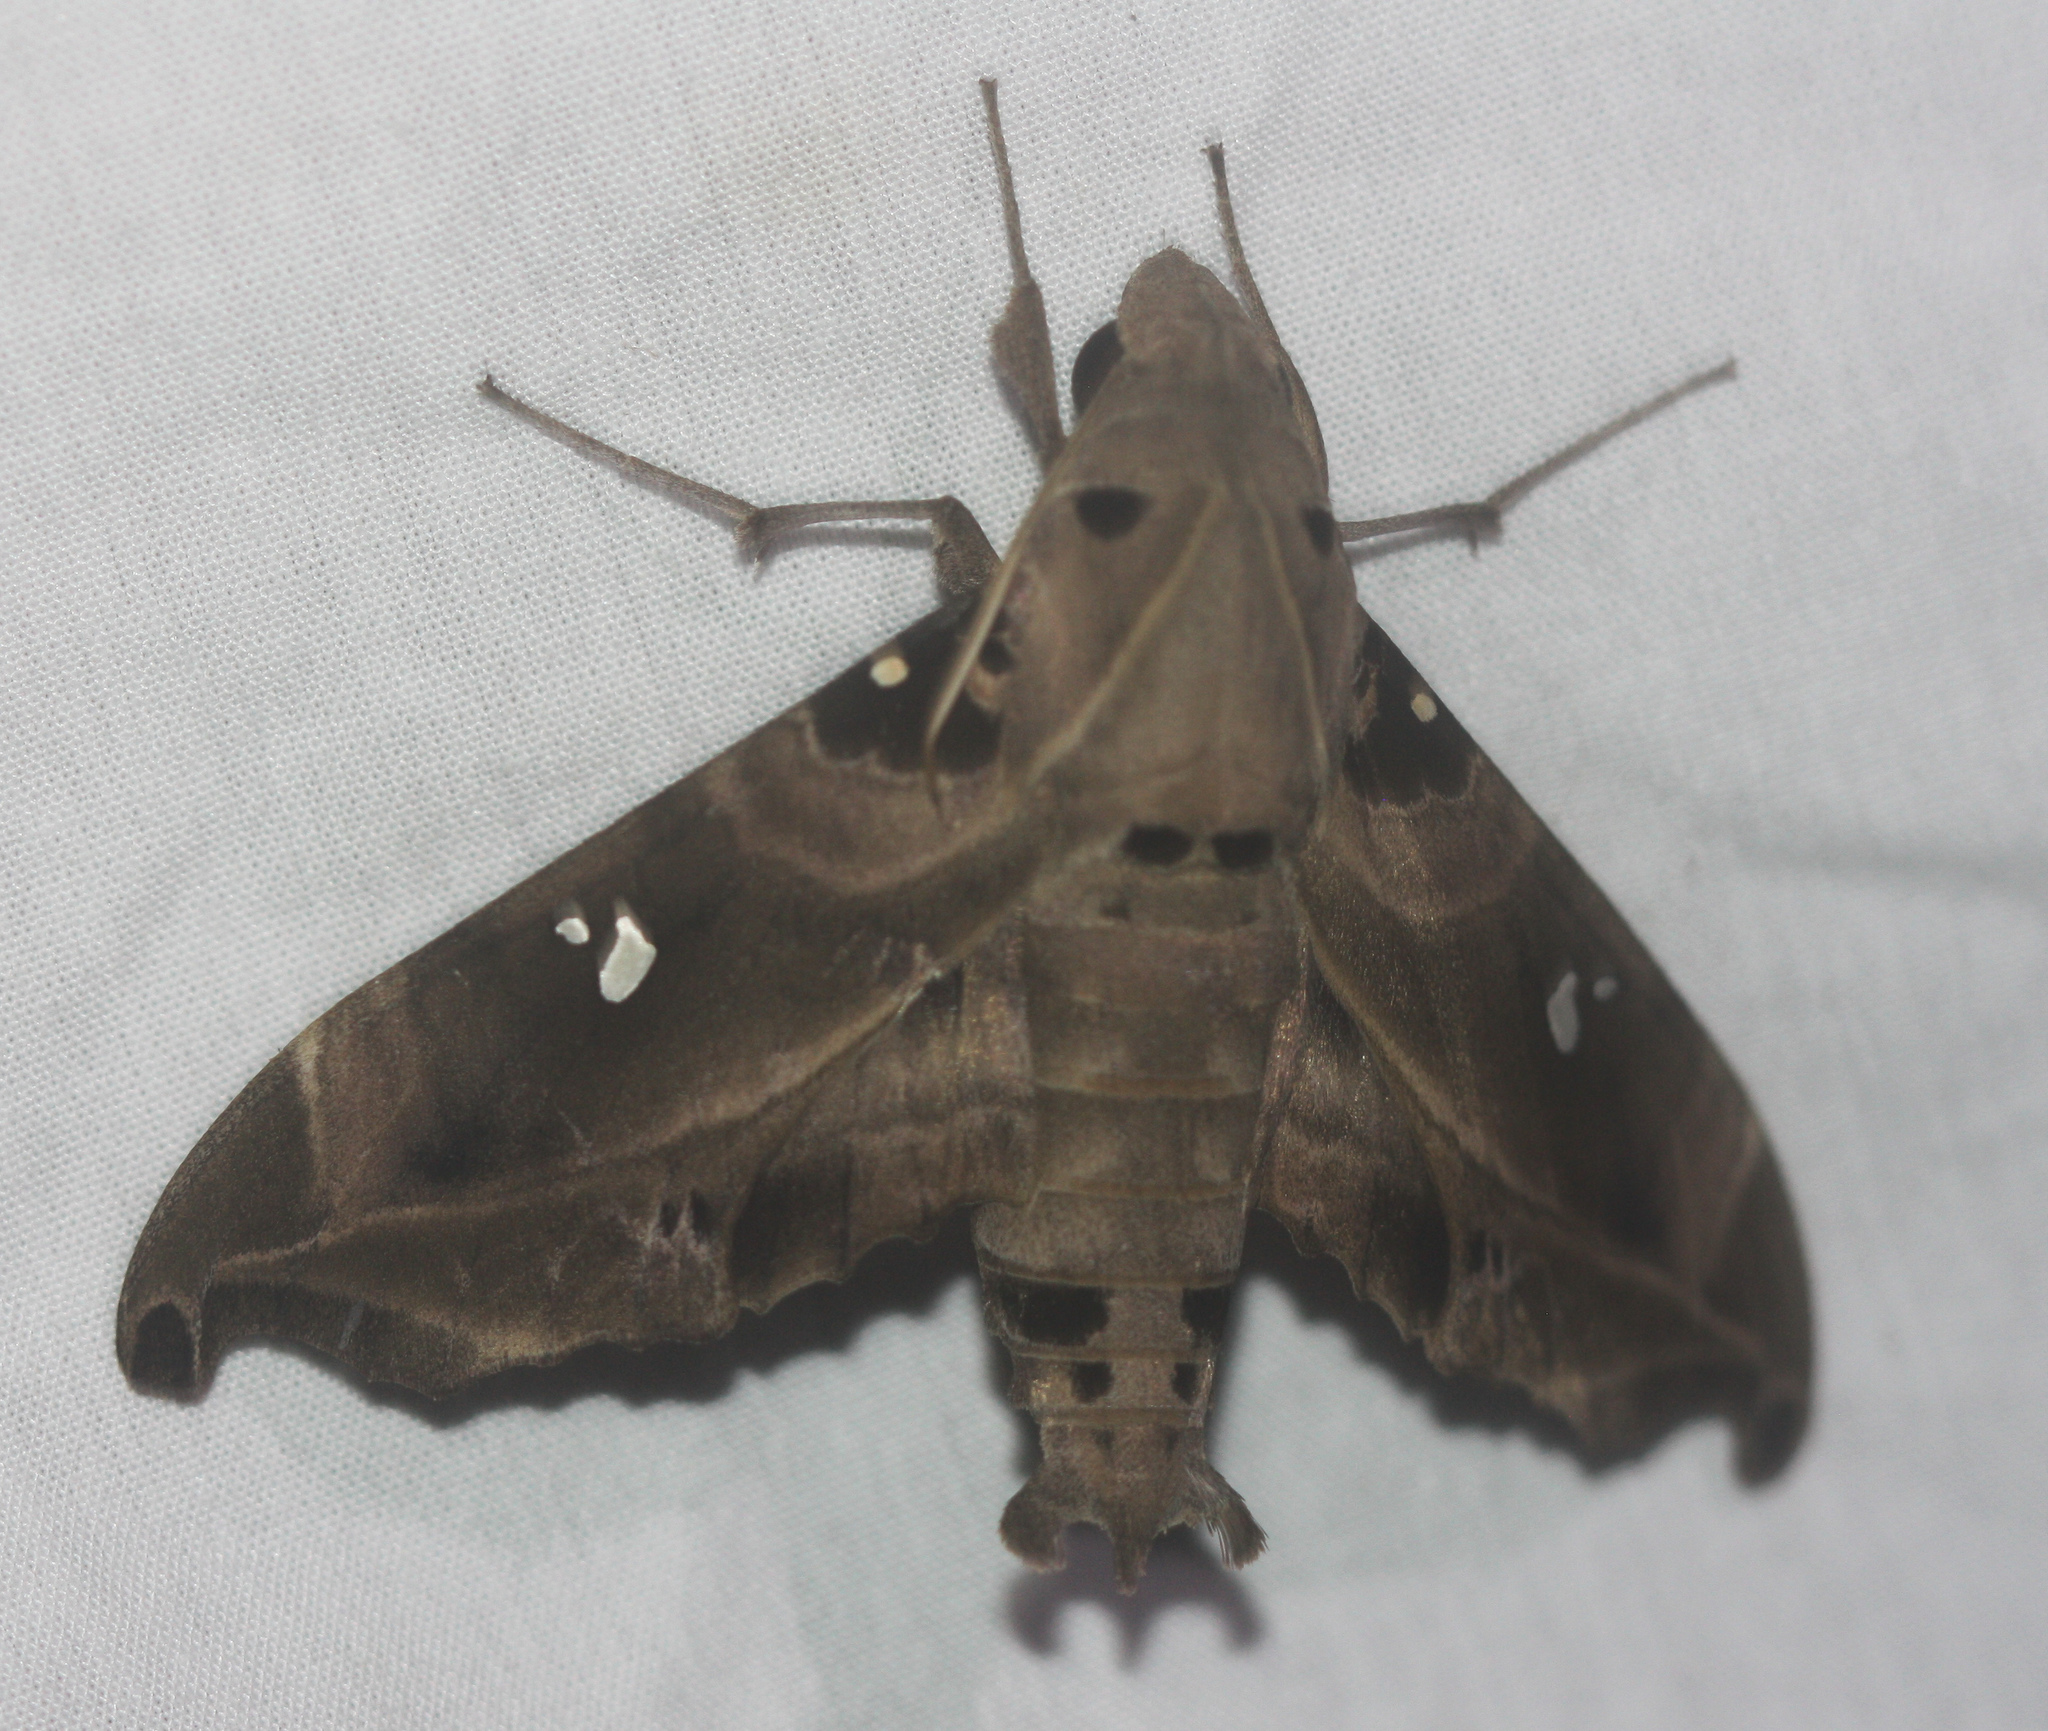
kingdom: Animalia
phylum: Arthropoda
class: Insecta
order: Lepidoptera
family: Sphingidae
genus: Madoryx
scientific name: Madoryx bubastus
